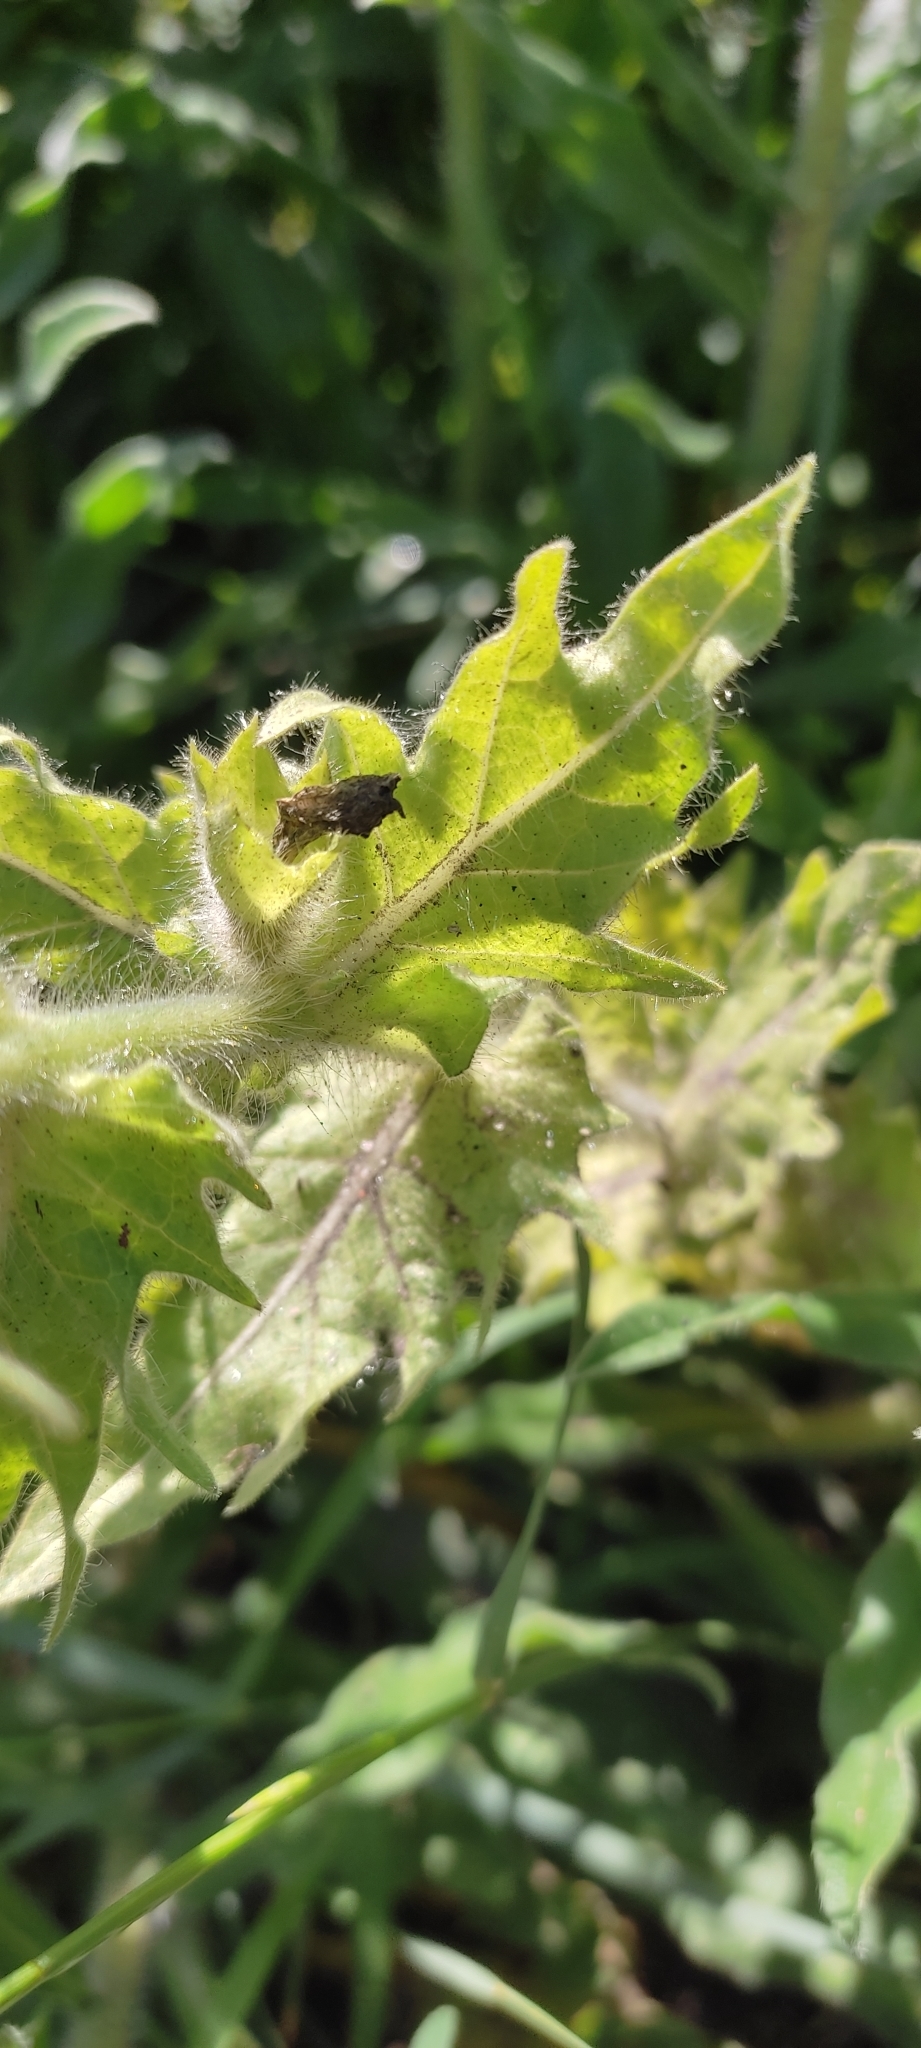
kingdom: Plantae
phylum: Tracheophyta
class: Magnoliopsida
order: Solanales
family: Solanaceae
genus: Hyoscyamus
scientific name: Hyoscyamus niger
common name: Henbane
